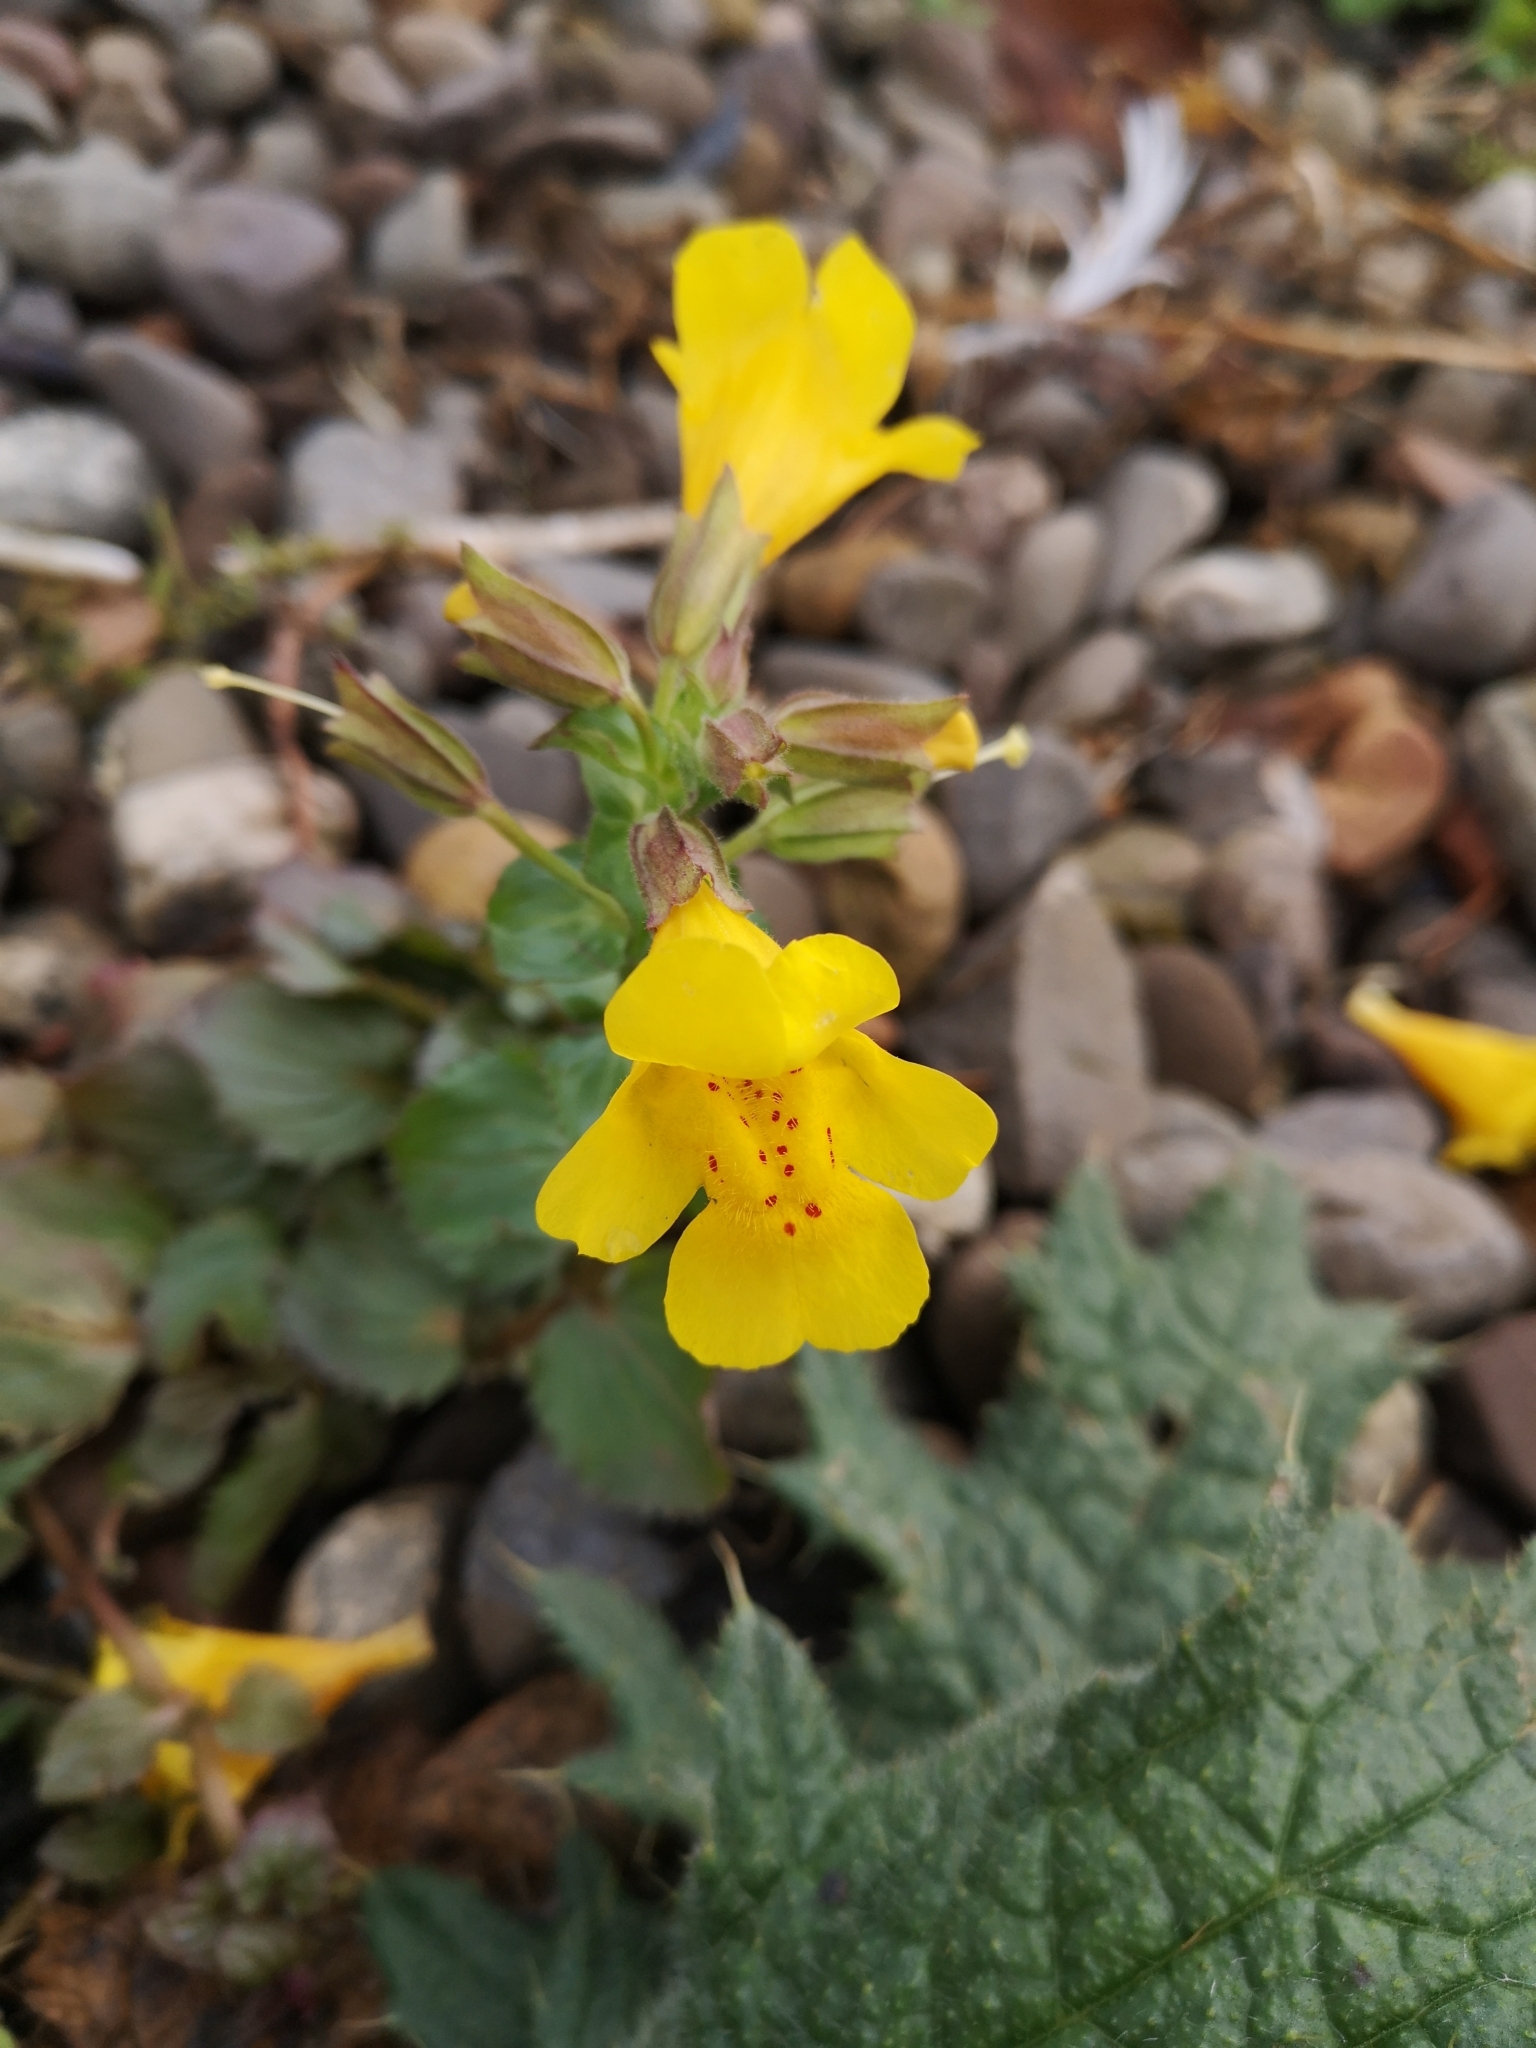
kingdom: Plantae
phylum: Tracheophyta
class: Magnoliopsida
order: Lamiales
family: Phrymaceae
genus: Erythranthe
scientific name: Erythranthe guttata
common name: Monkeyflower
